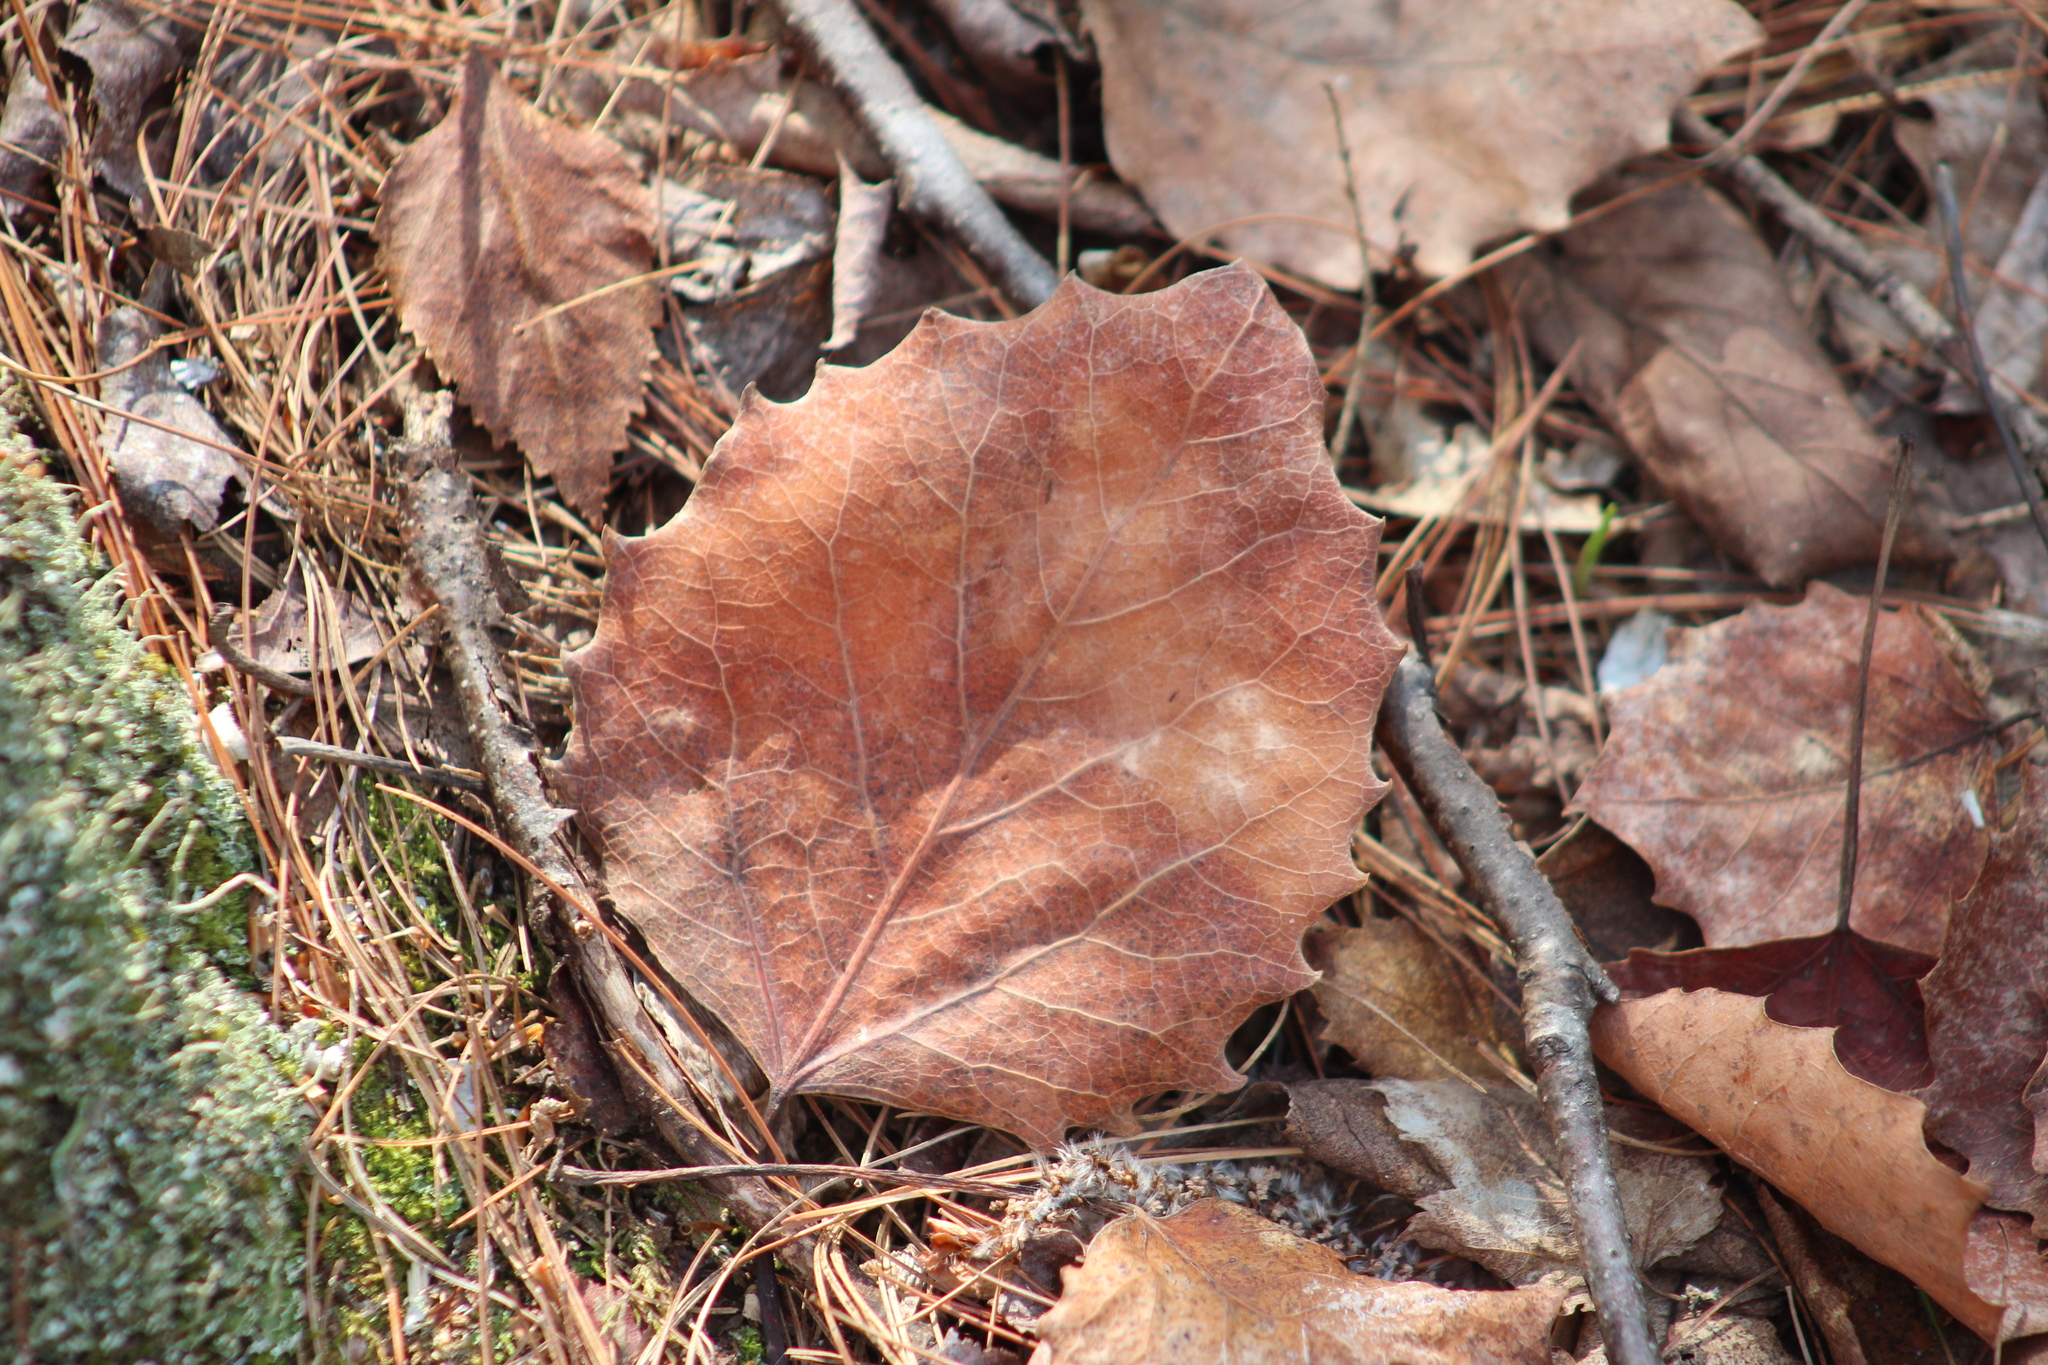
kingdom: Plantae
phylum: Tracheophyta
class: Magnoliopsida
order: Malpighiales
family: Salicaceae
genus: Populus
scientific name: Populus grandidentata
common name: Bigtooth aspen
